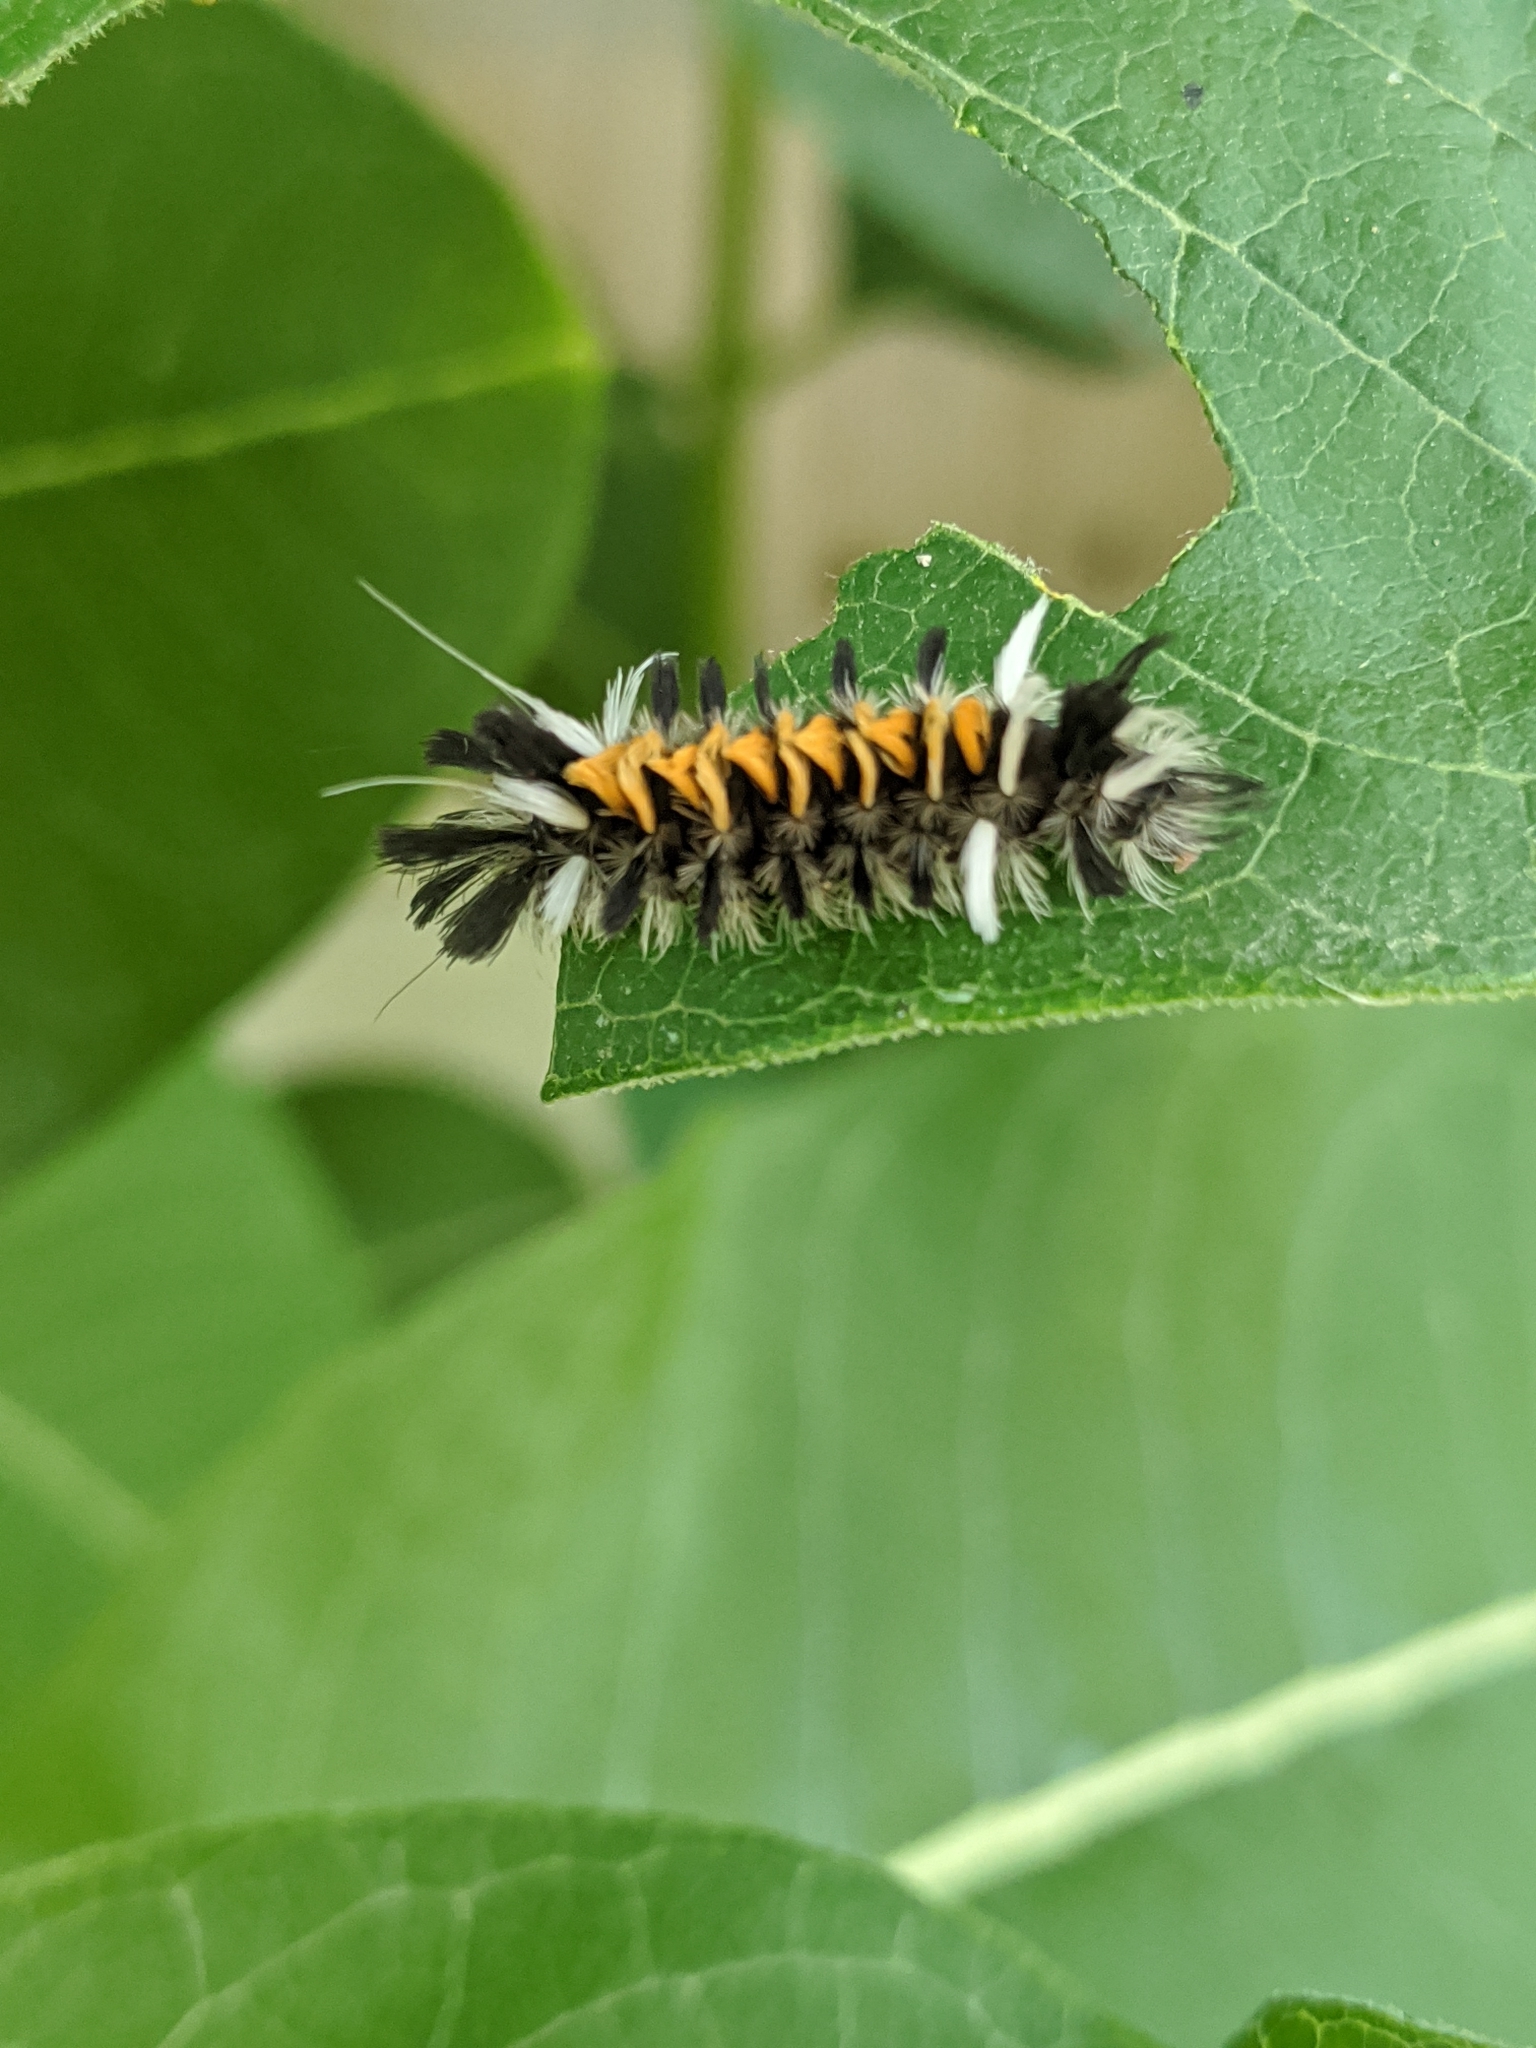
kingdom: Animalia
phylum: Arthropoda
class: Insecta
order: Lepidoptera
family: Erebidae
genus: Euchaetes
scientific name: Euchaetes egle
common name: Milkweed tussock moth
